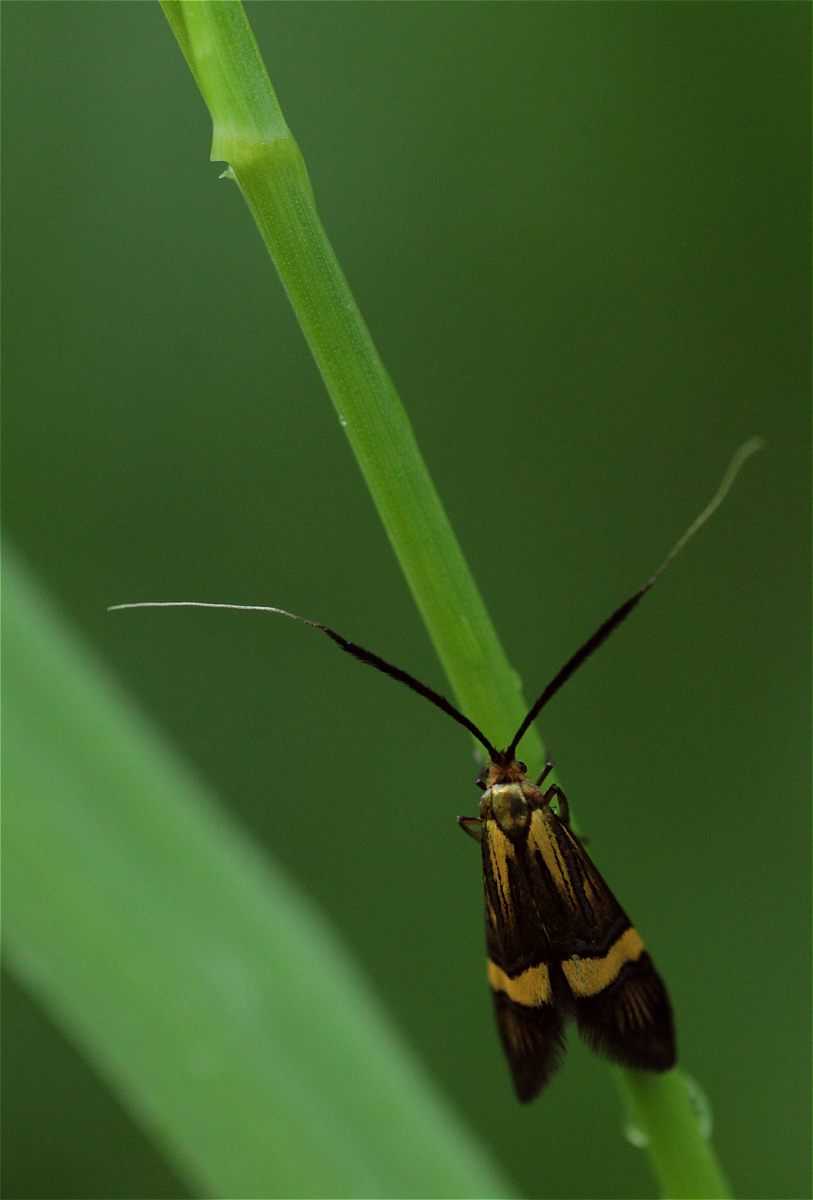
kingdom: Animalia
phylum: Arthropoda
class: Insecta
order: Lepidoptera
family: Adelidae
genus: Nemophora
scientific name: Nemophora
